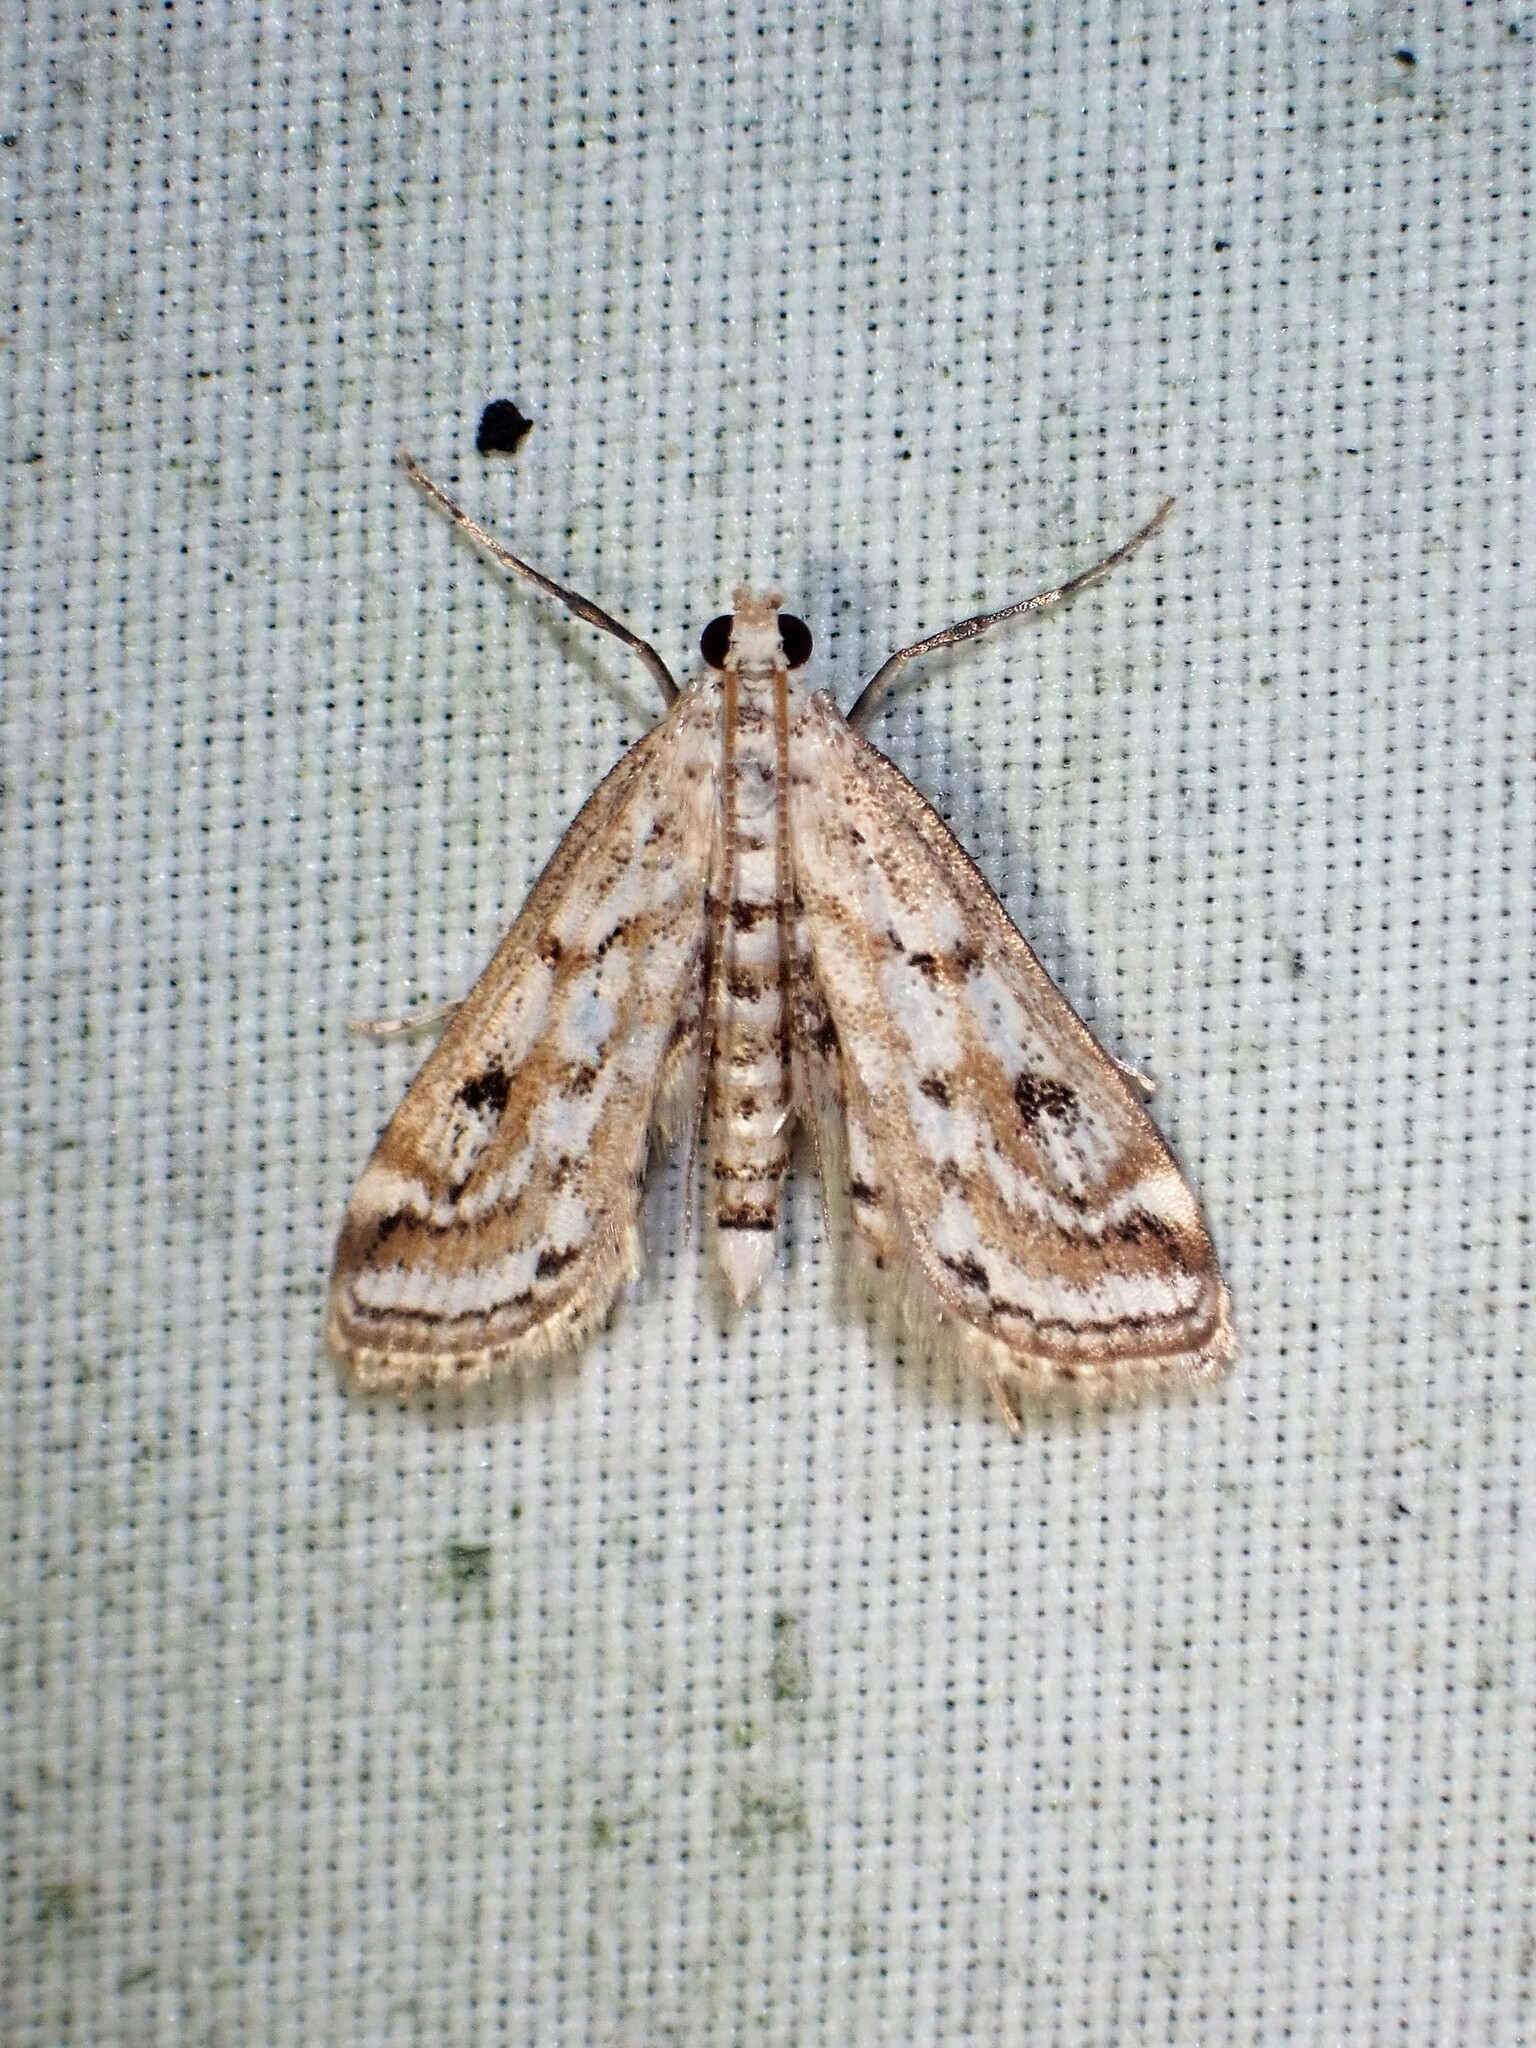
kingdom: Animalia
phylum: Arthropoda
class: Insecta
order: Lepidoptera
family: Crambidae
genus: Parapoynx
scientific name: Parapoynx allionealis
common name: Bladderwort casemaker
